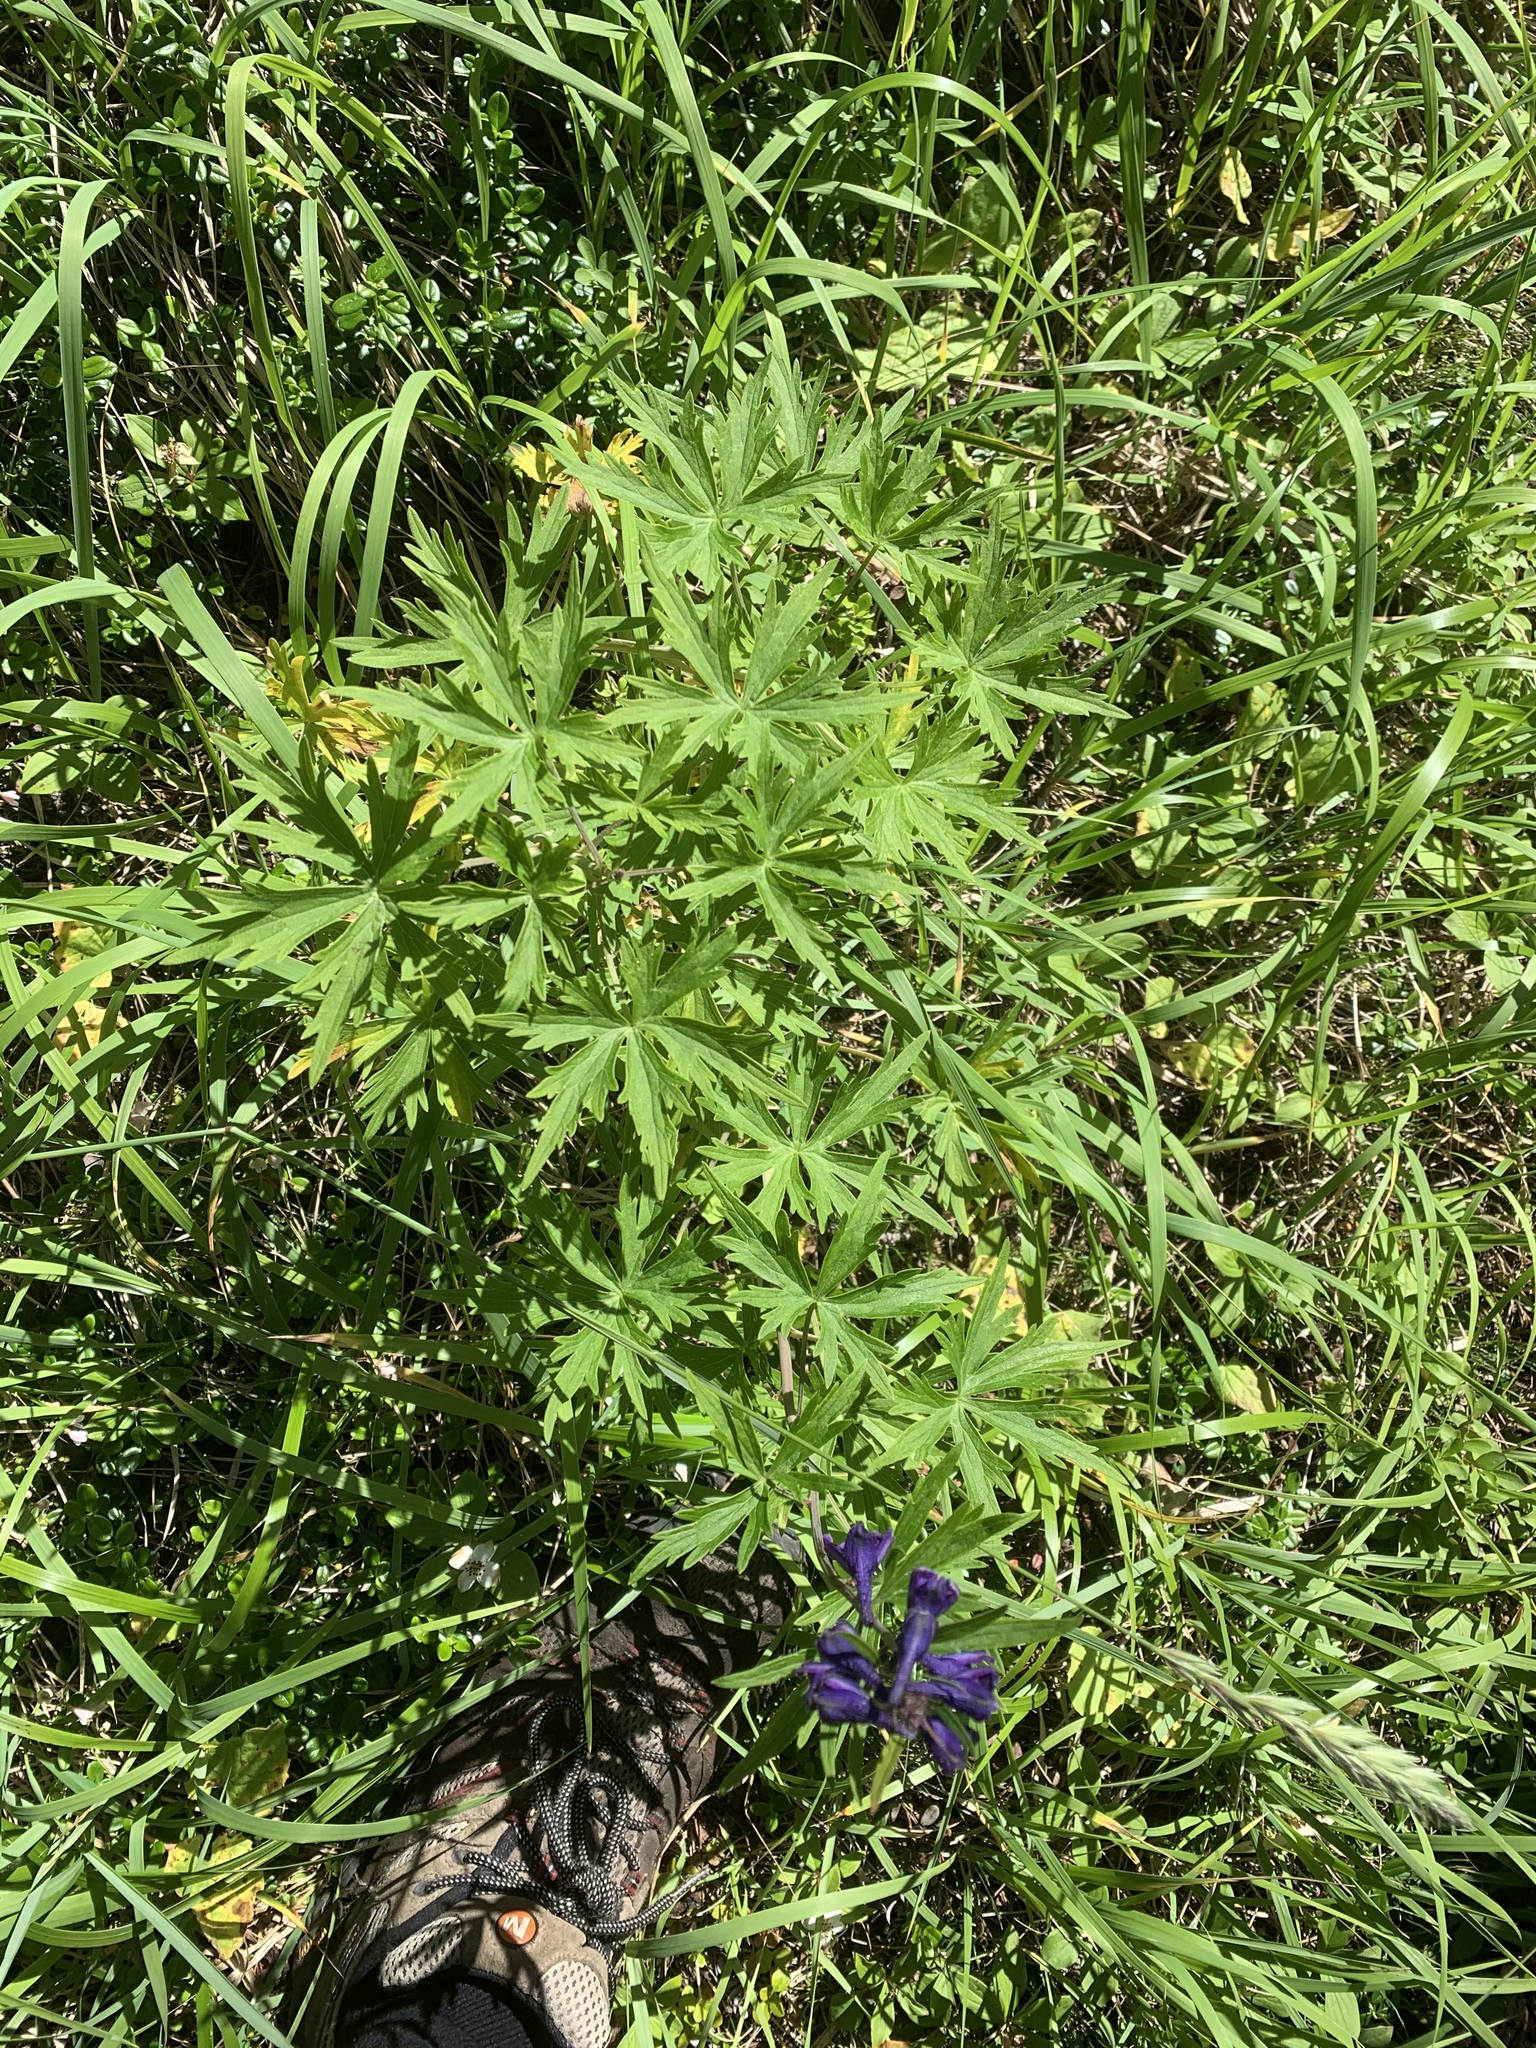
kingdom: Plantae
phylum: Tracheophyta
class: Magnoliopsida
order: Ranunculales
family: Ranunculaceae
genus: Delphinium
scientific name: Delphinium glaucum
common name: Brown's larkspur
